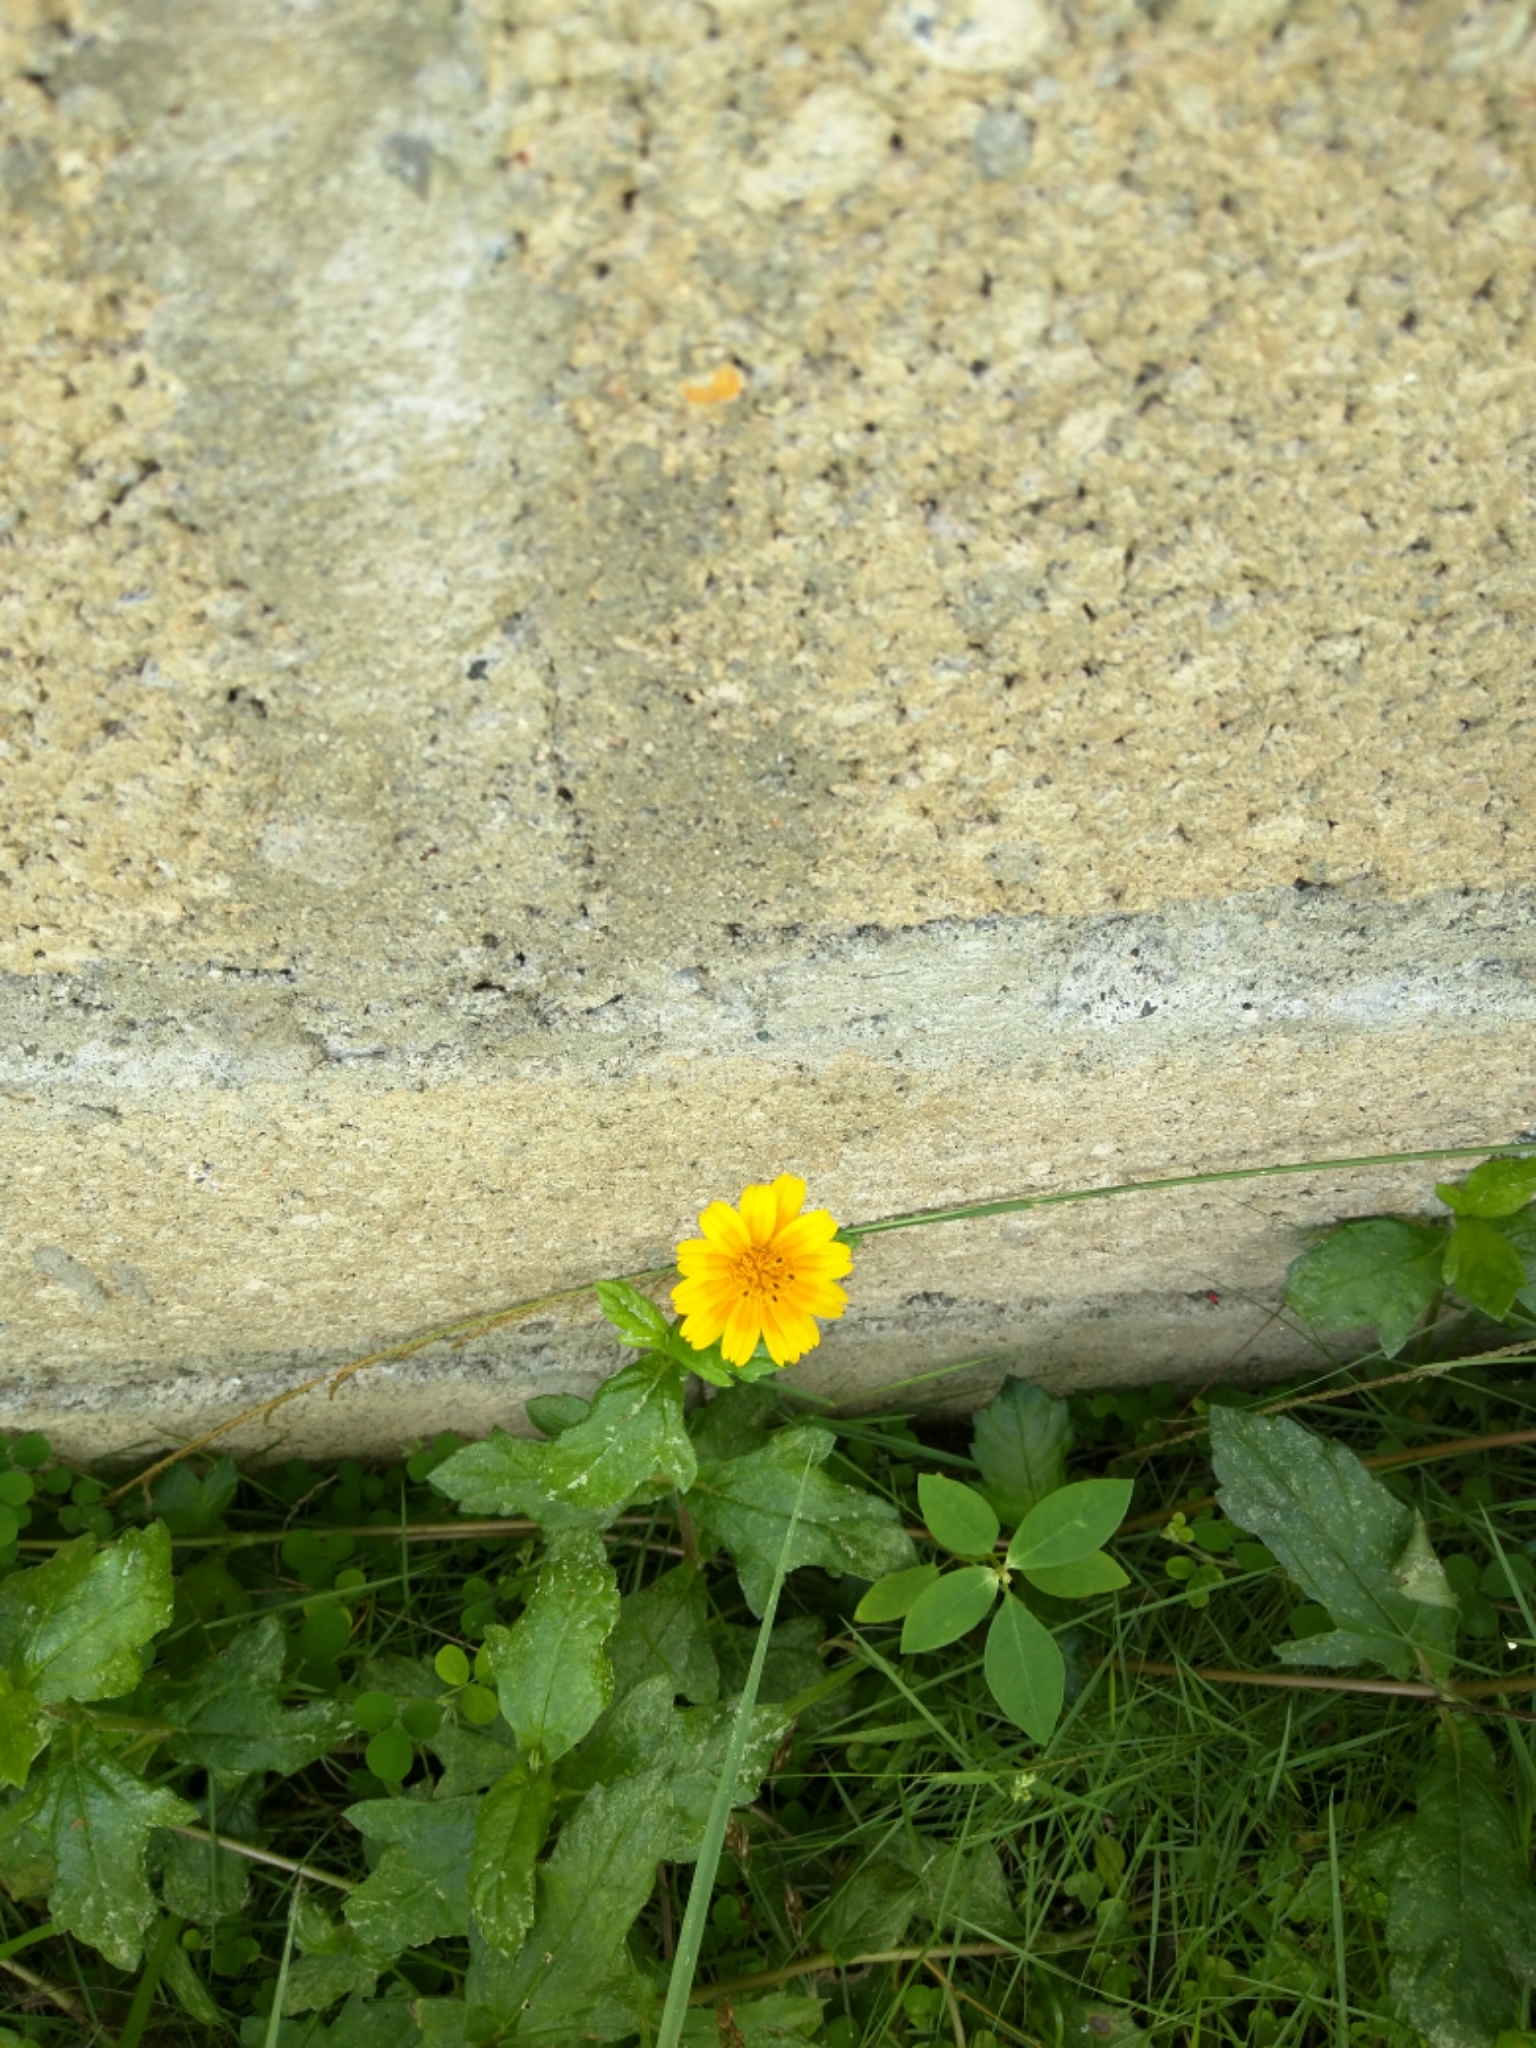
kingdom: Plantae
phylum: Tracheophyta
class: Magnoliopsida
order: Asterales
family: Asteraceae
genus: Sphagneticola
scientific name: Sphagneticola trilobata
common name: Bay biscayne creeping-oxeye
